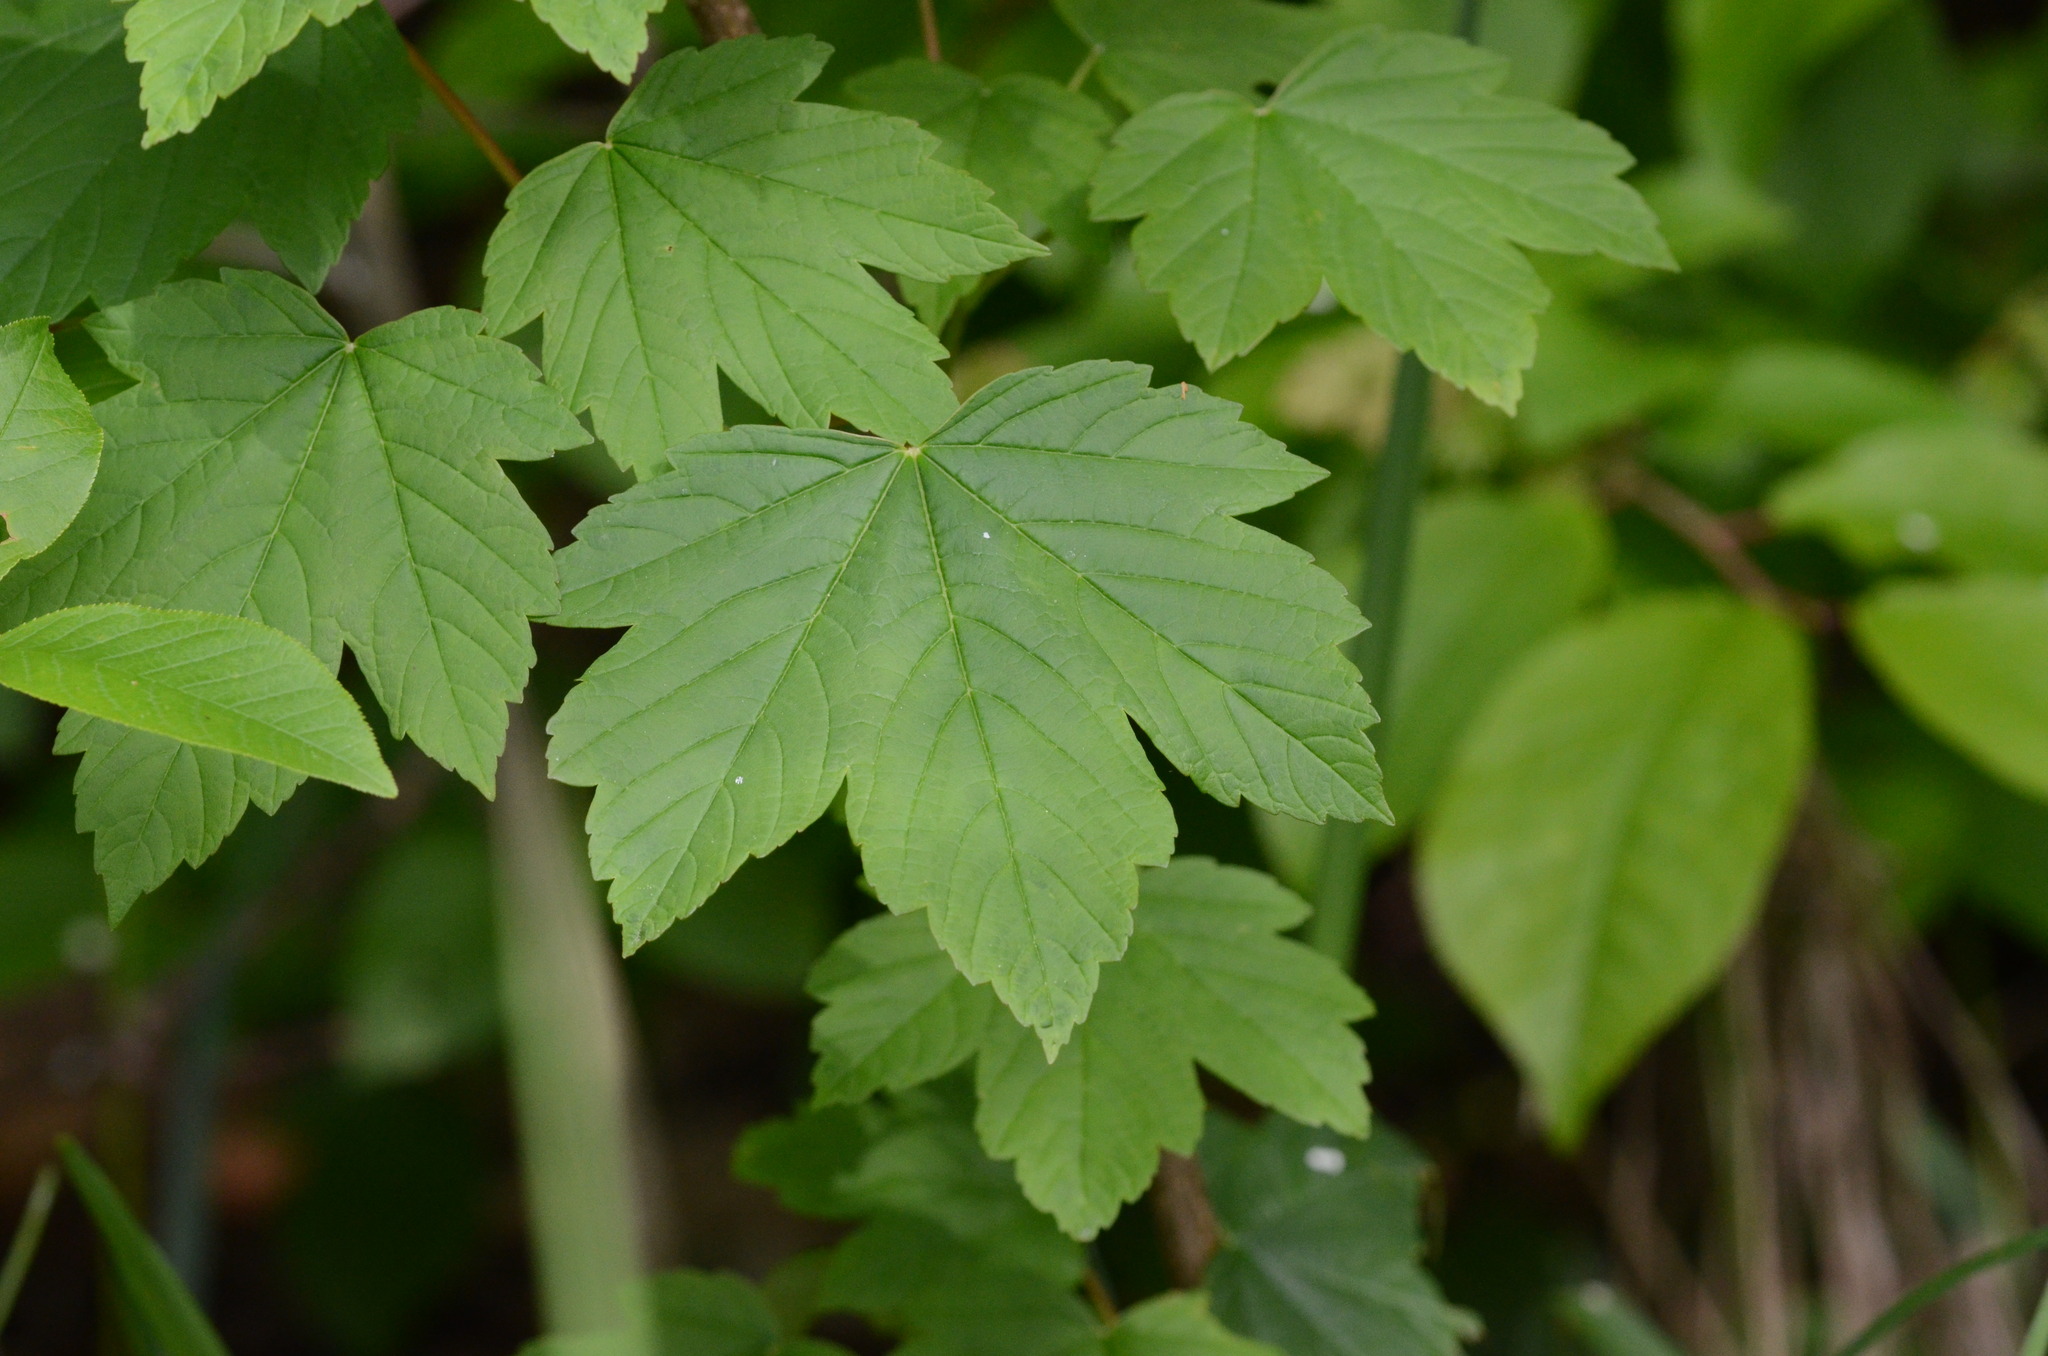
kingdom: Plantae
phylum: Tracheophyta
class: Magnoliopsida
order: Sapindales
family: Sapindaceae
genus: Acer
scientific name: Acer pseudoplatanus
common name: Sycamore
